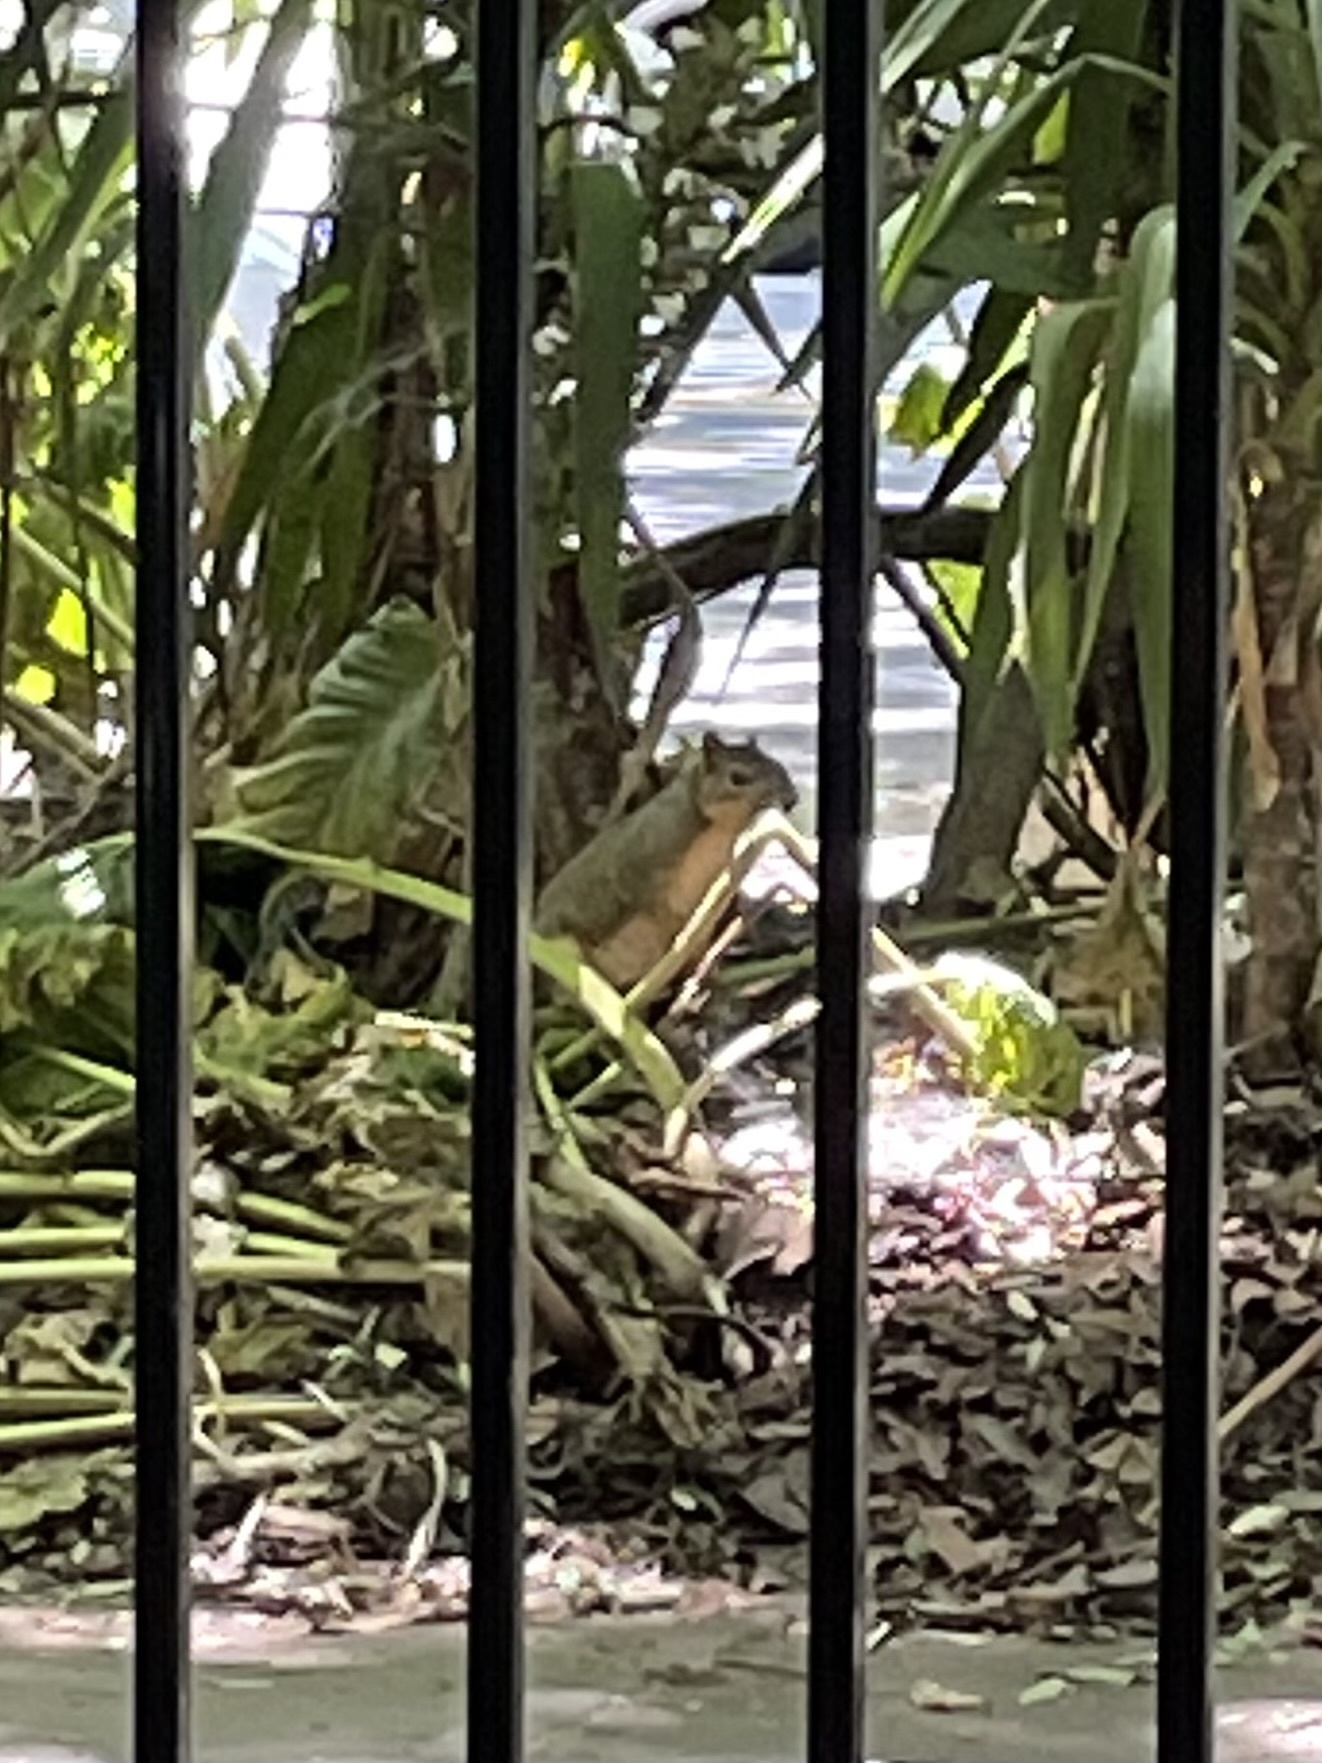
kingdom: Animalia
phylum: Chordata
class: Mammalia
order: Rodentia
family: Sciuridae
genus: Sciurus
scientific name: Sciurus niger
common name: Fox squirrel
